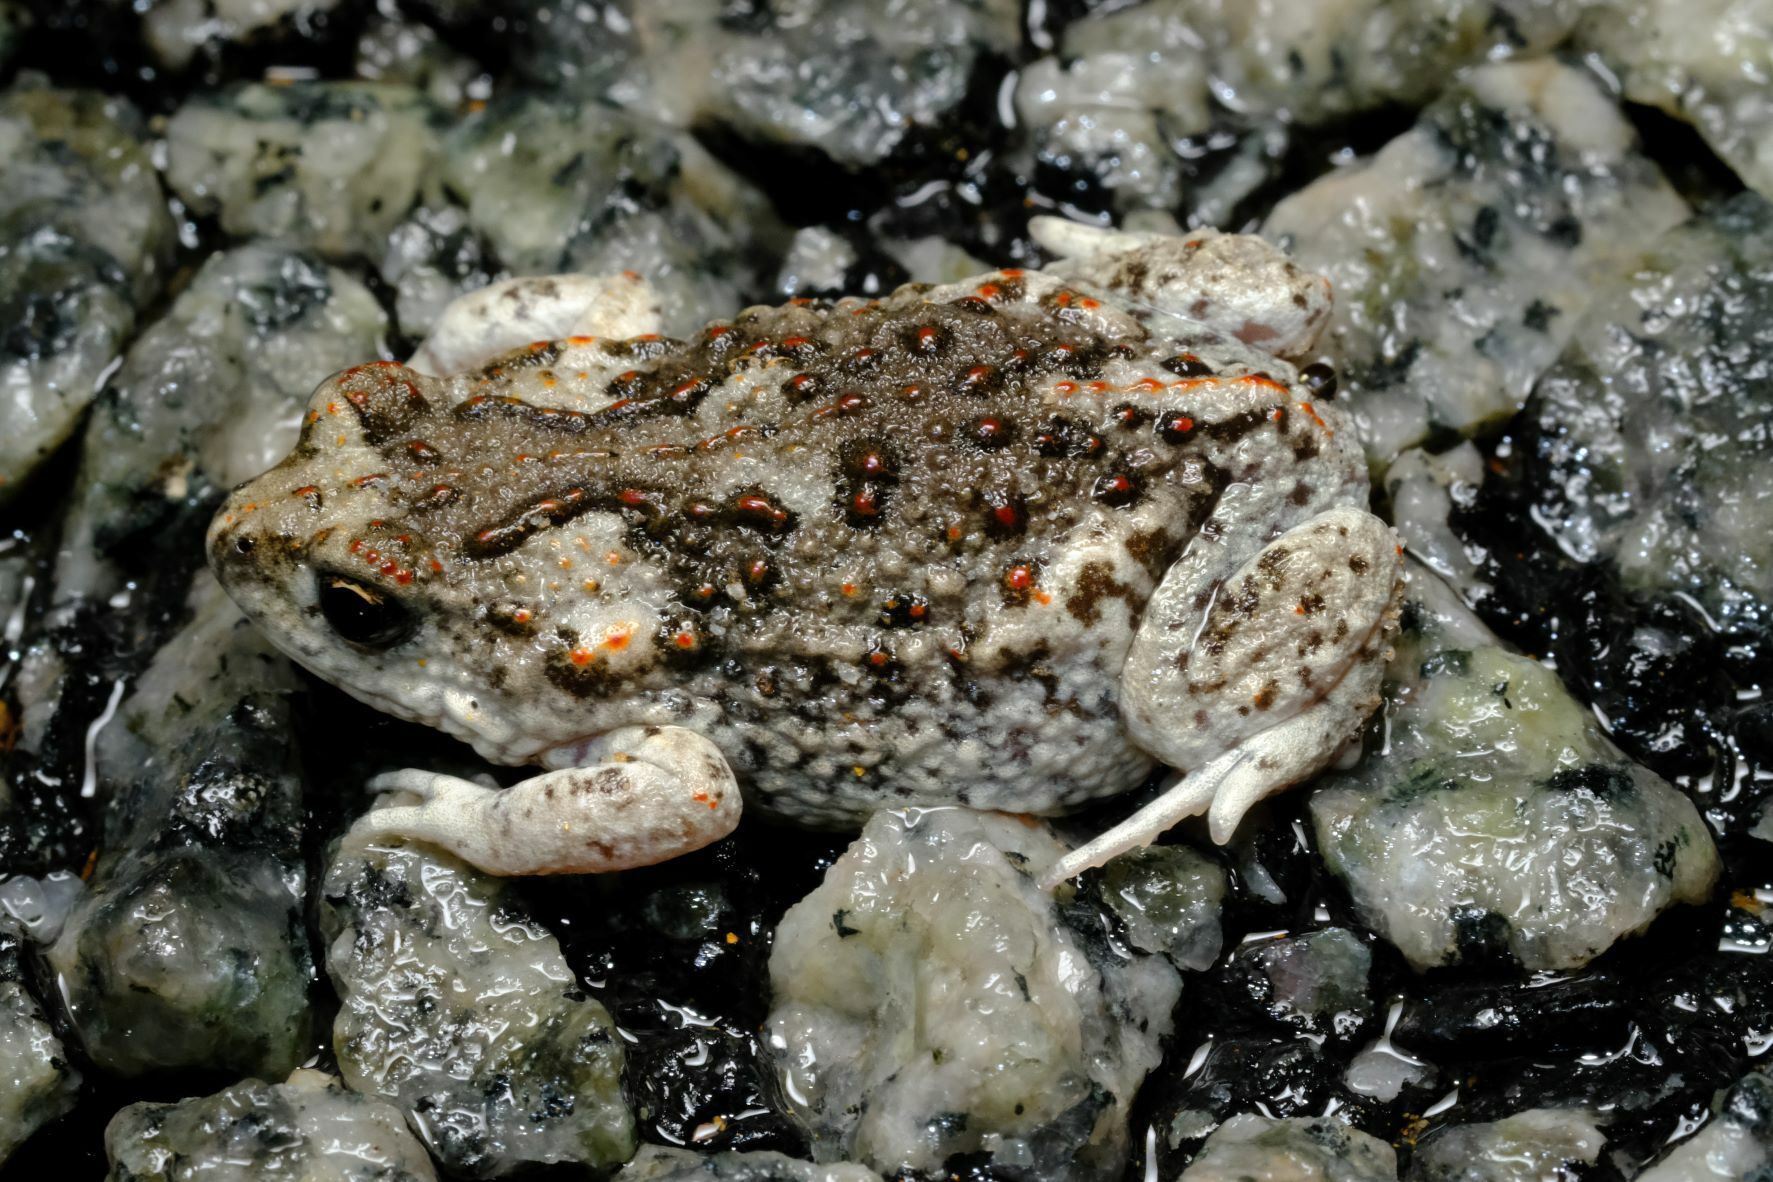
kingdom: Animalia
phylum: Chordata
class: Amphibia
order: Anura
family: Myobatrachidae
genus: Pseudophryne
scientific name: Pseudophryne guentheri
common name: Günther’s toadlet
